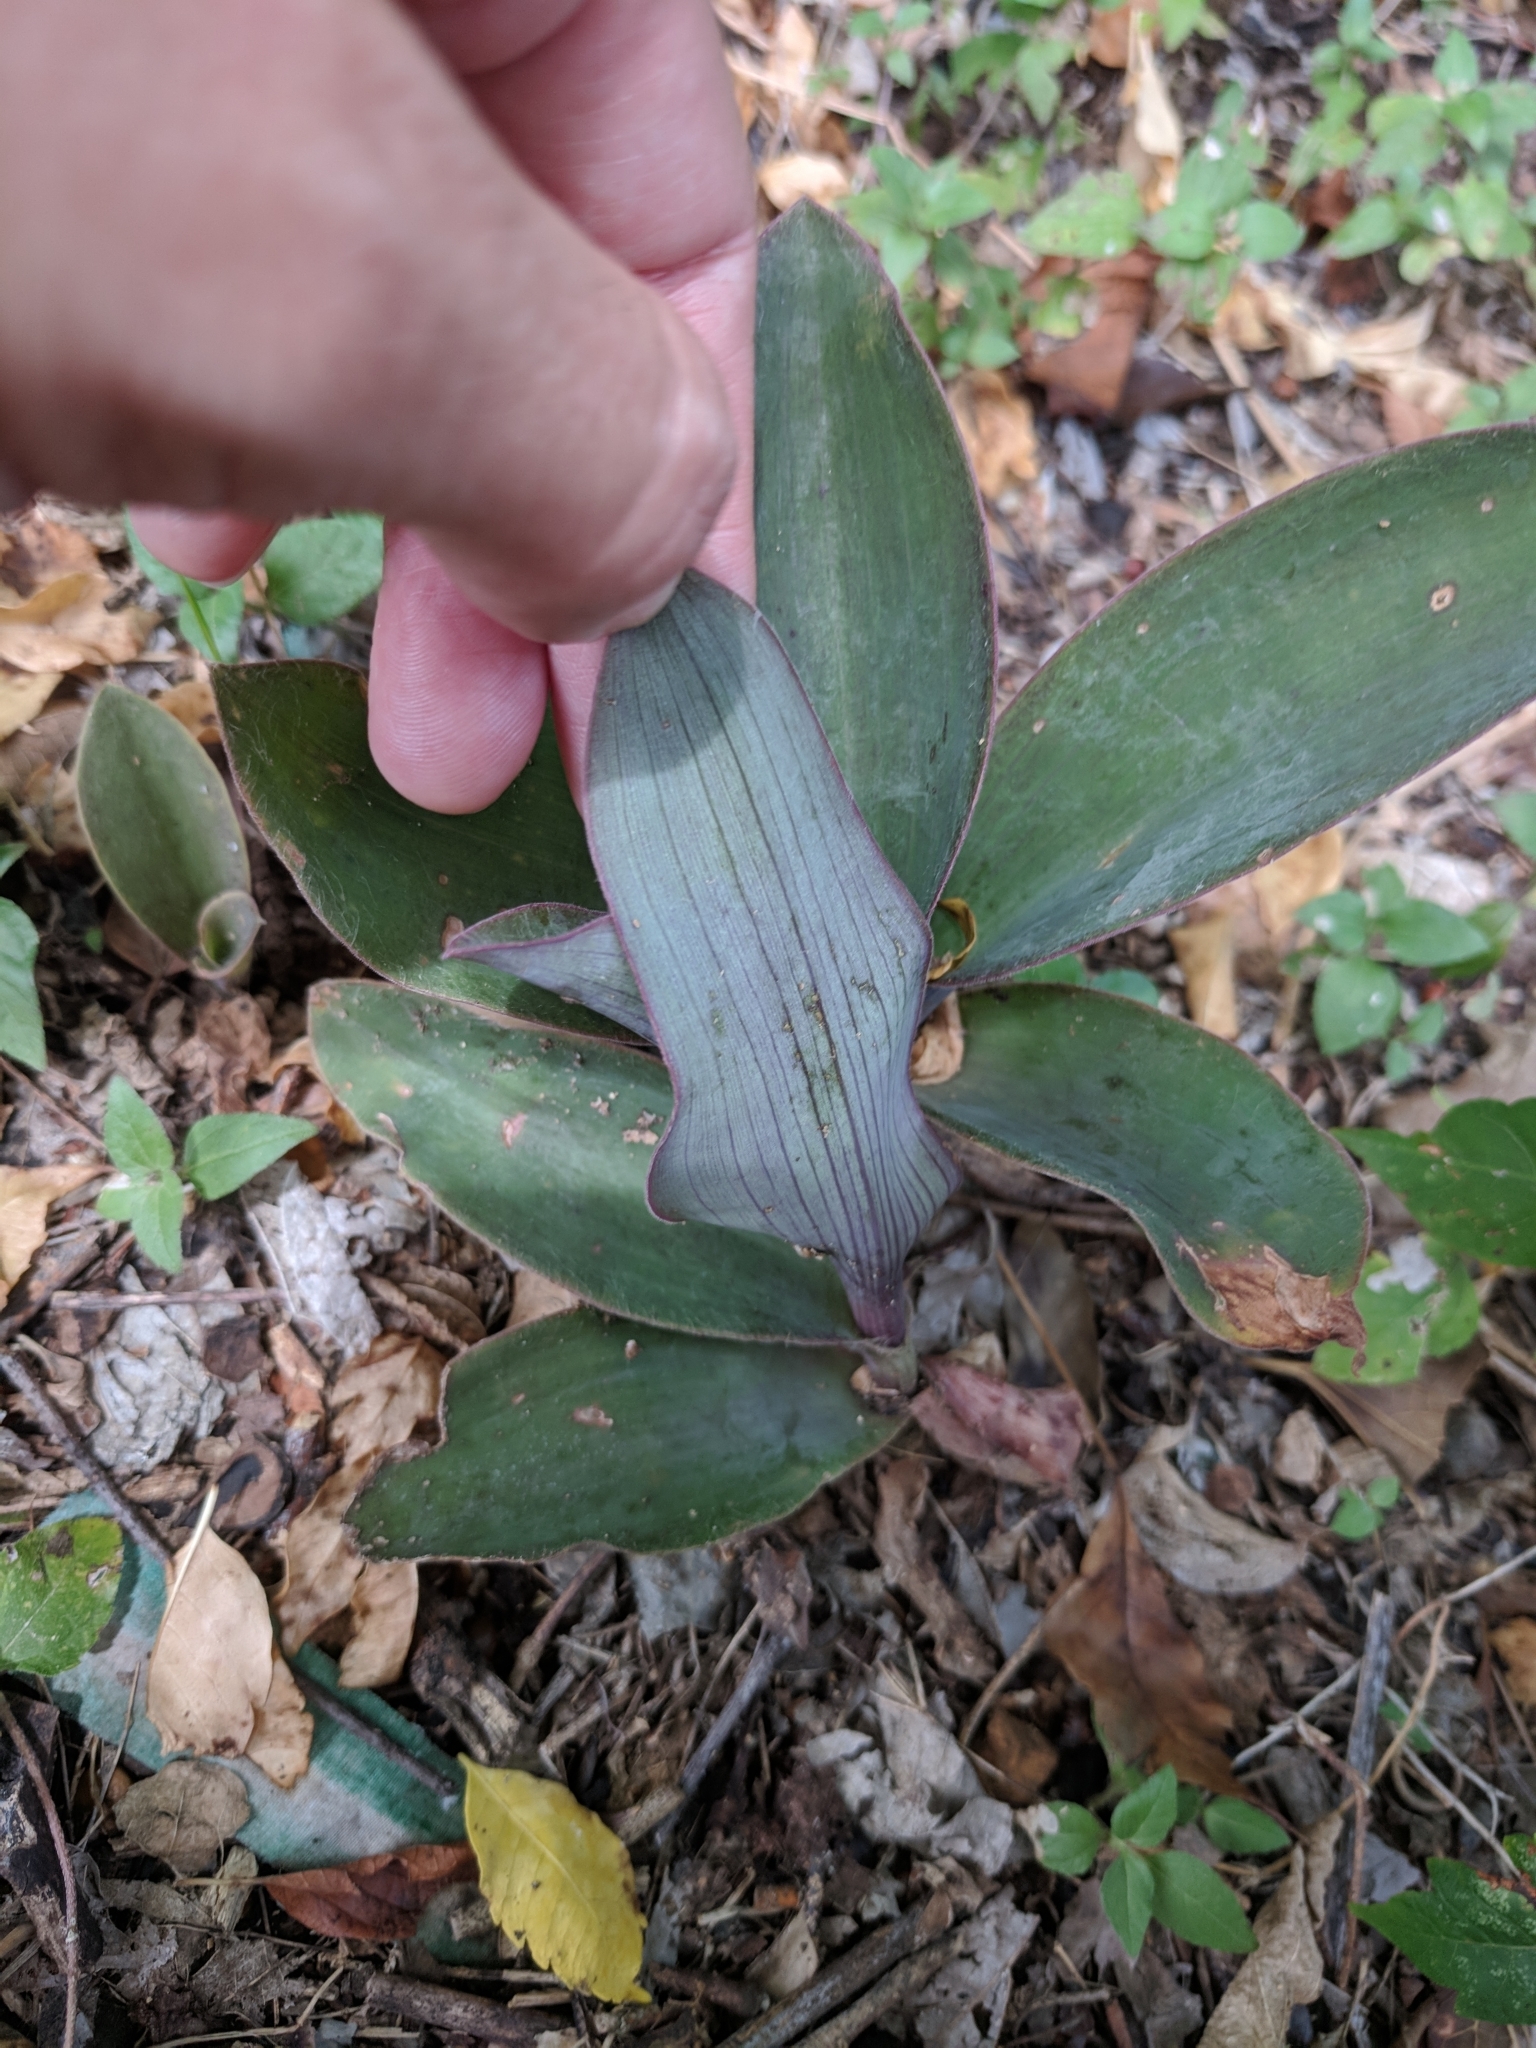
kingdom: Plantae
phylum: Tracheophyta
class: Liliopsida
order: Commelinales
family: Commelinaceae
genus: Tradescantia
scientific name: Tradescantia pallida
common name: Purpleheart
